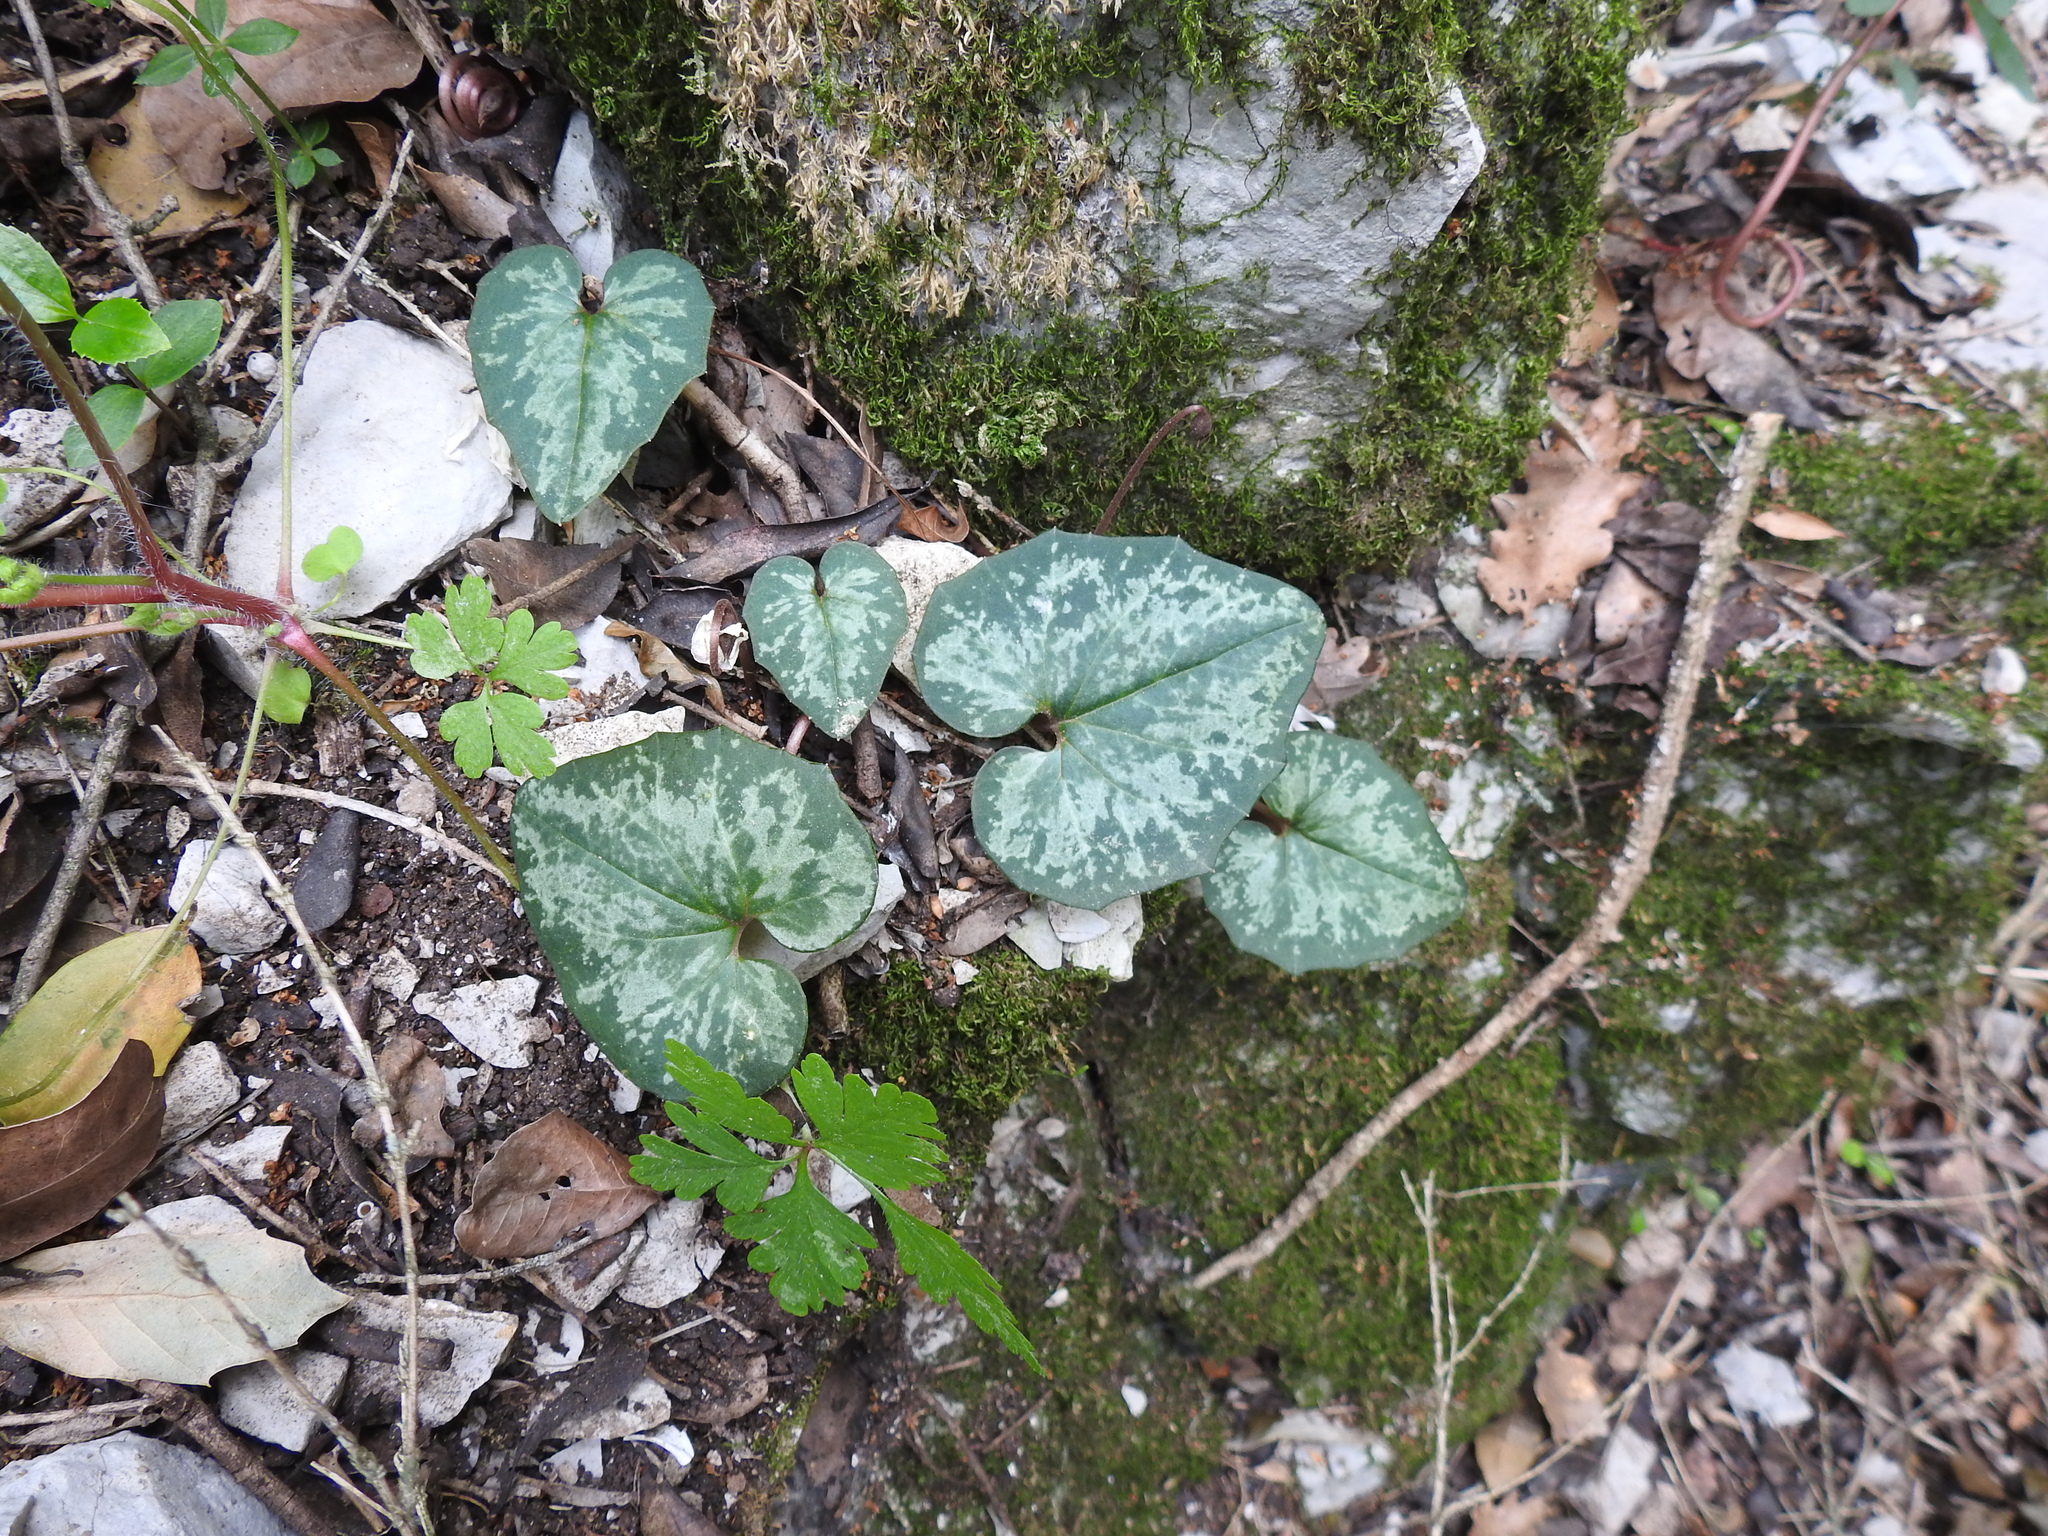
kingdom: Plantae
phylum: Tracheophyta
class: Magnoliopsida
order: Ericales
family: Primulaceae
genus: Cyclamen
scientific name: Cyclamen balearicum
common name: Majorca cyclamen
